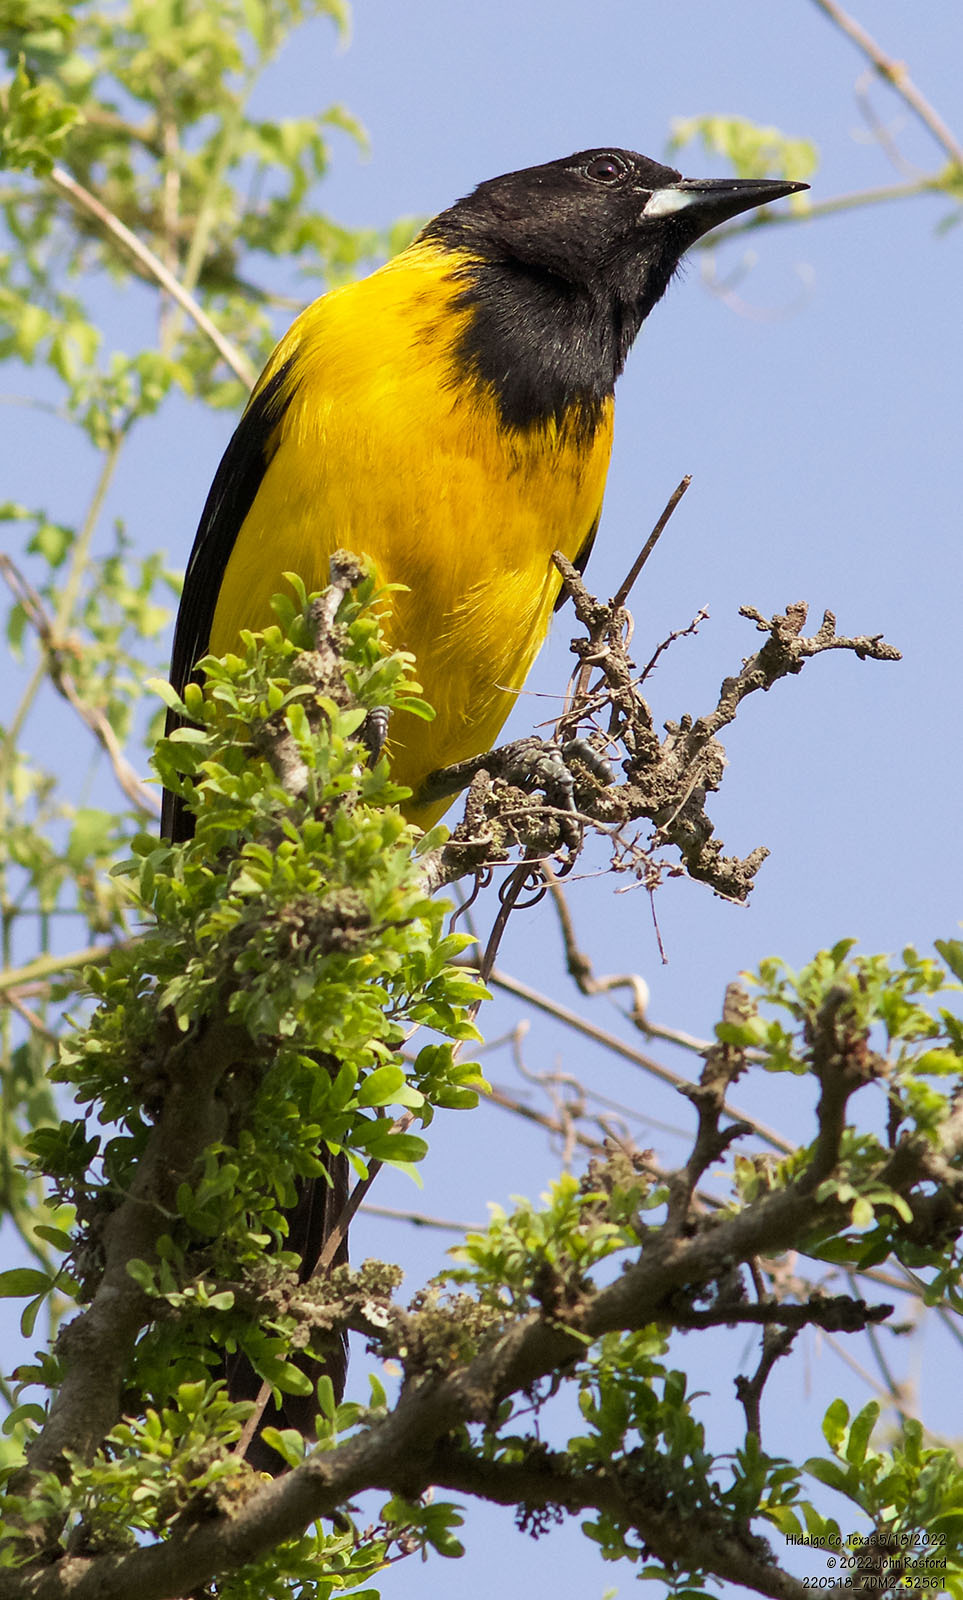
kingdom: Animalia
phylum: Chordata
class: Aves
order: Passeriformes
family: Icteridae
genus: Icterus
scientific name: Icterus graduacauda
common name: Audubon's oriole
